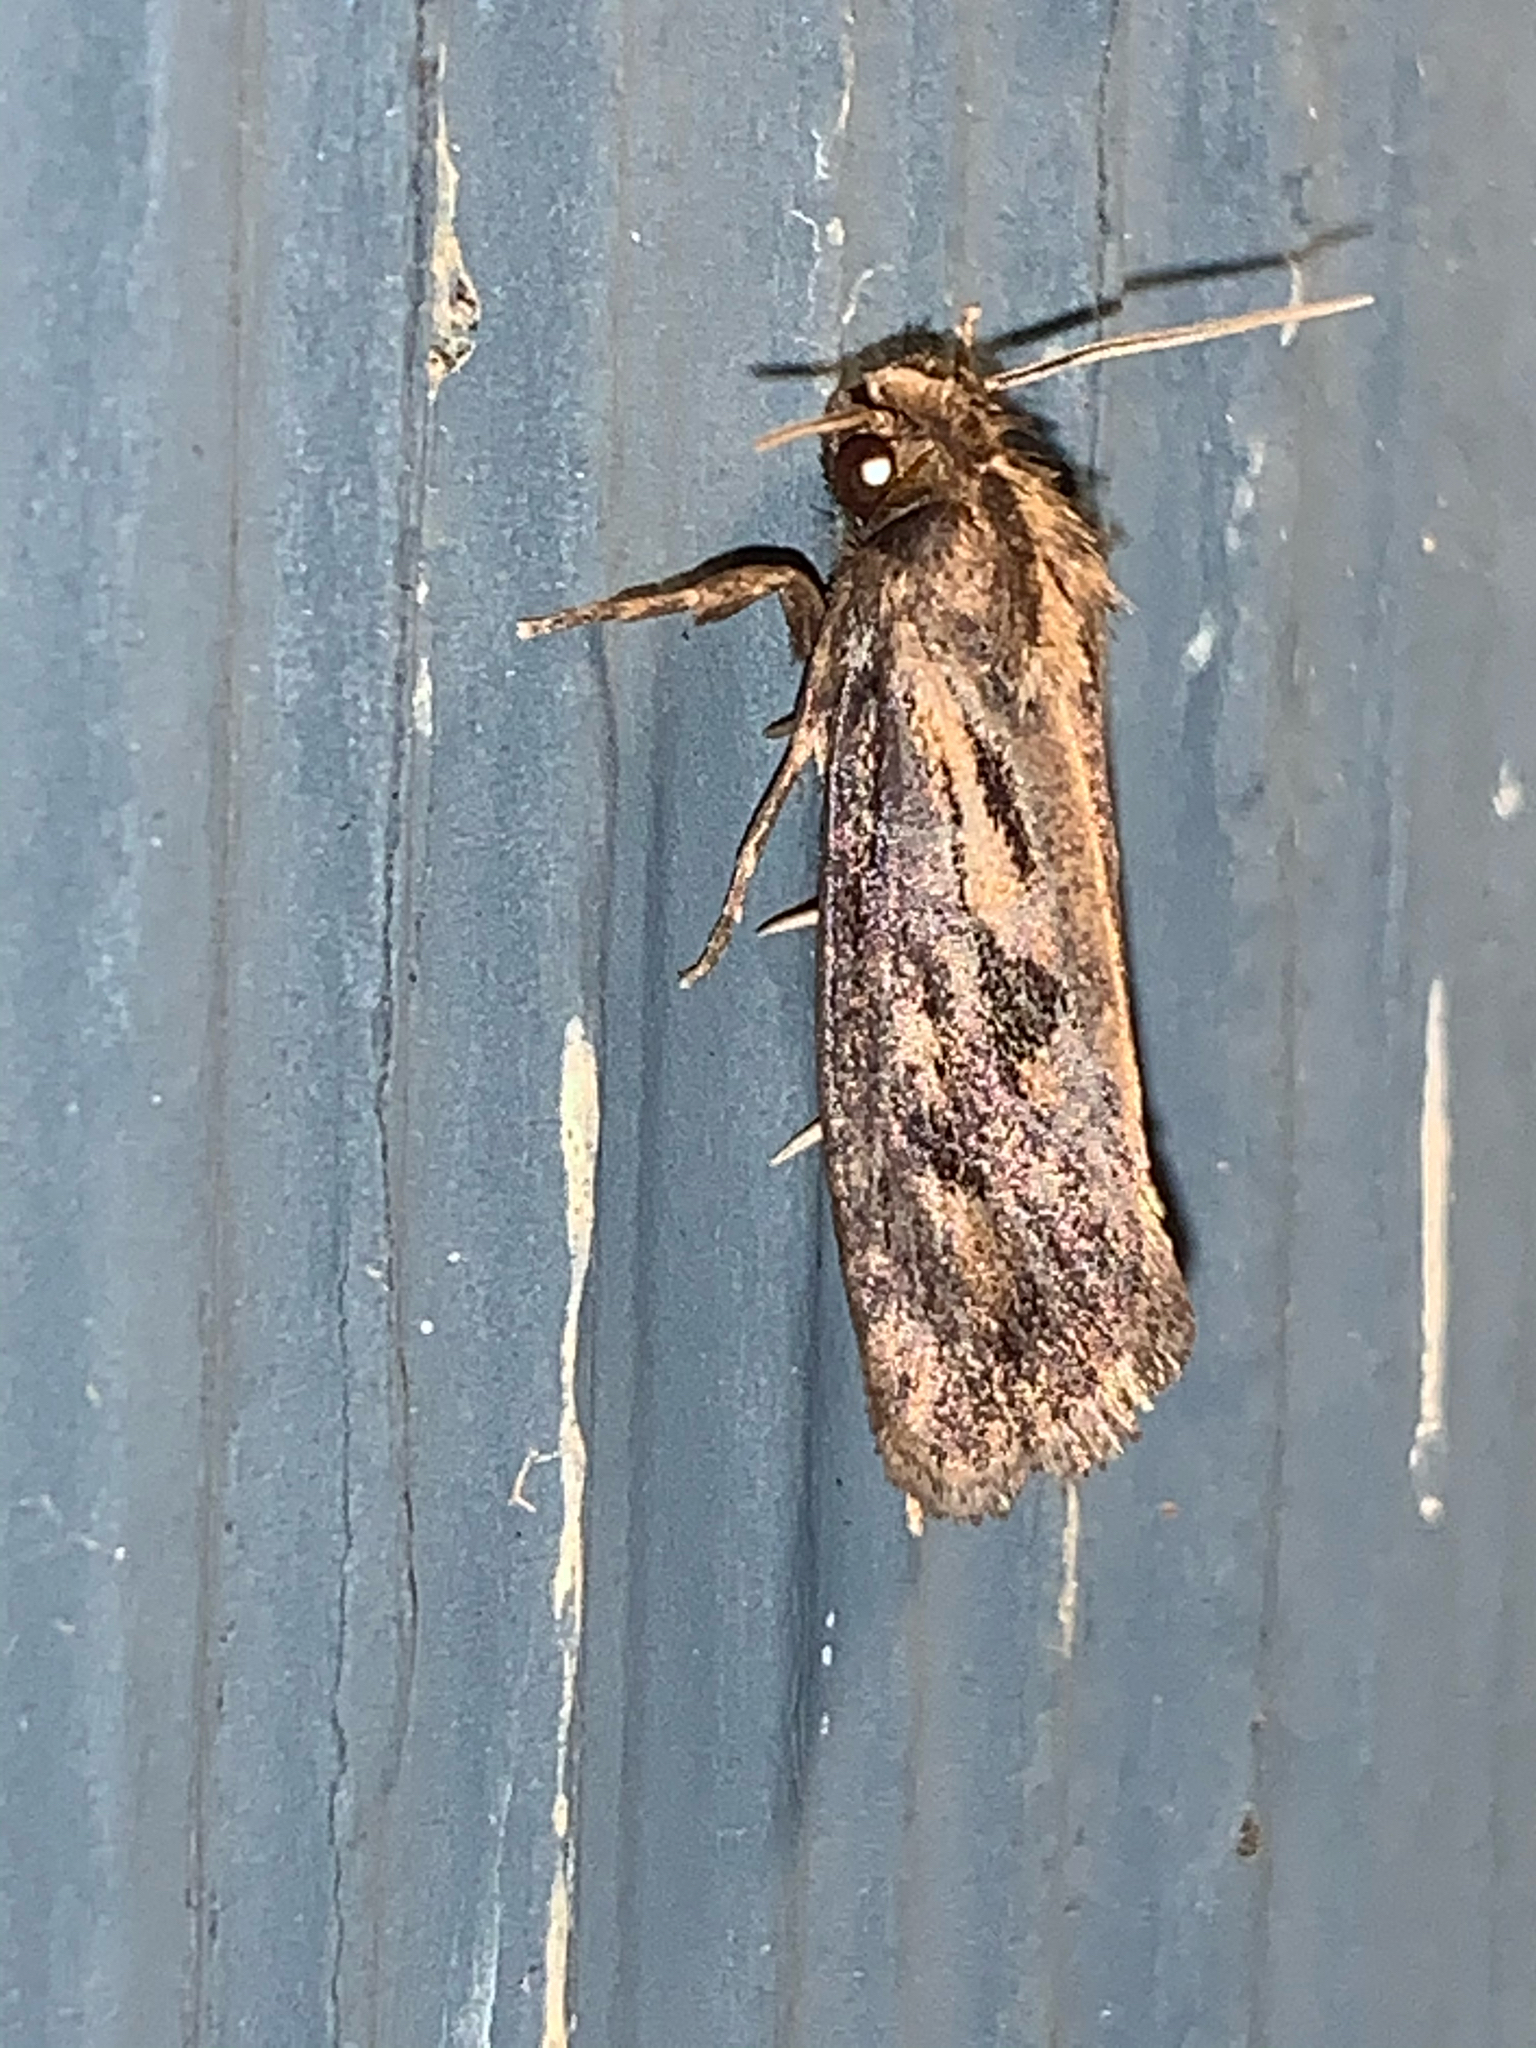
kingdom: Animalia
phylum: Arthropoda
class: Insecta
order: Lepidoptera
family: Tineidae
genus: Acrolophus
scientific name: Acrolophus popeanella
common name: Clemens' grass tubeworm moth
